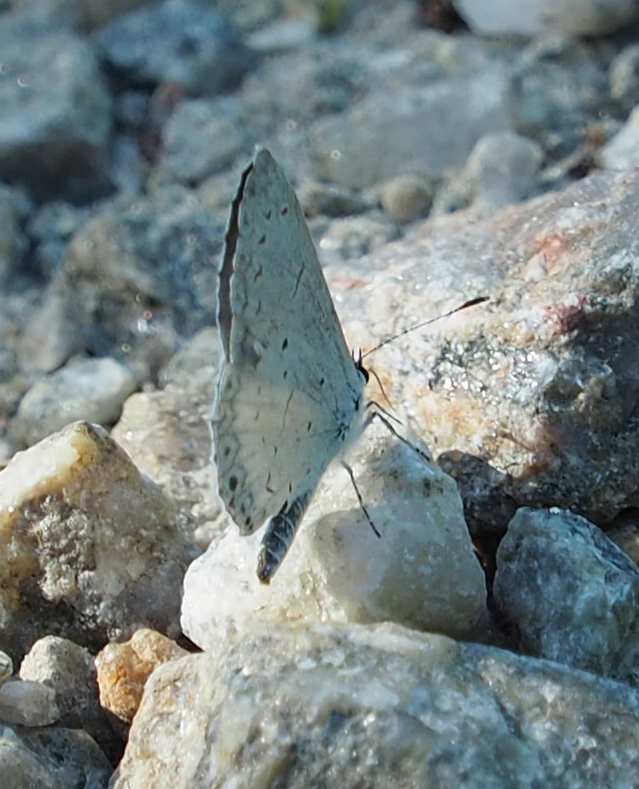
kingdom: Animalia
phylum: Arthropoda
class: Insecta
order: Lepidoptera
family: Lycaenidae
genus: Cyaniris
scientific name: Cyaniris neglecta
